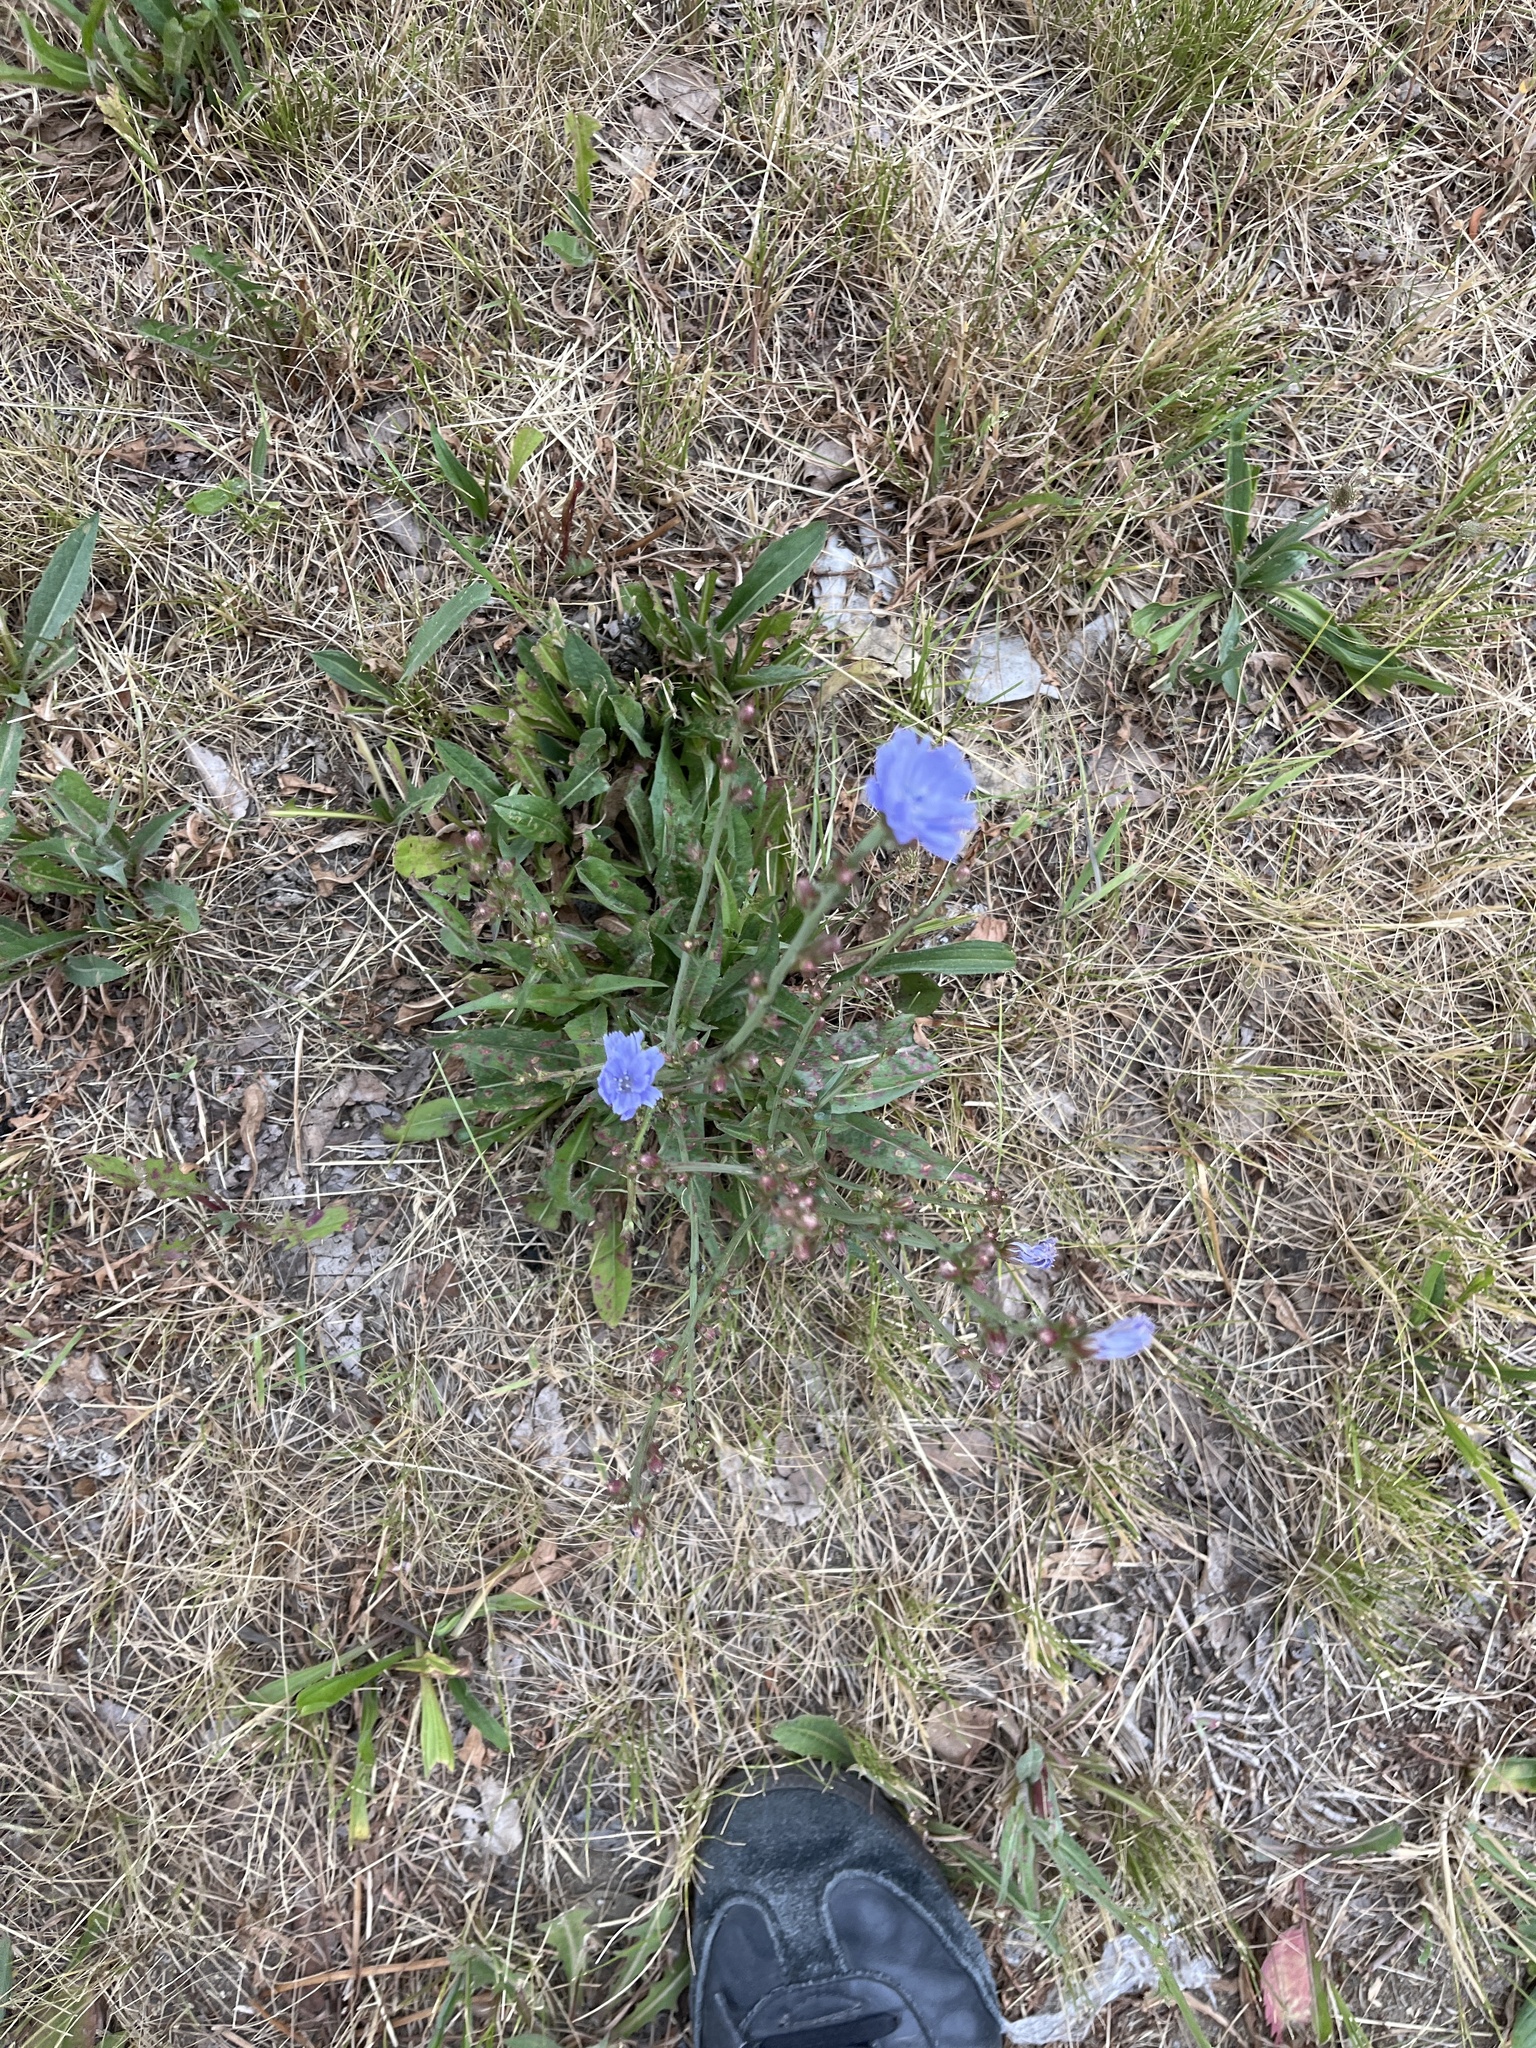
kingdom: Plantae
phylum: Tracheophyta
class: Magnoliopsida
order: Asterales
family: Asteraceae
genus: Cichorium
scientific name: Cichorium intybus
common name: Chicory
